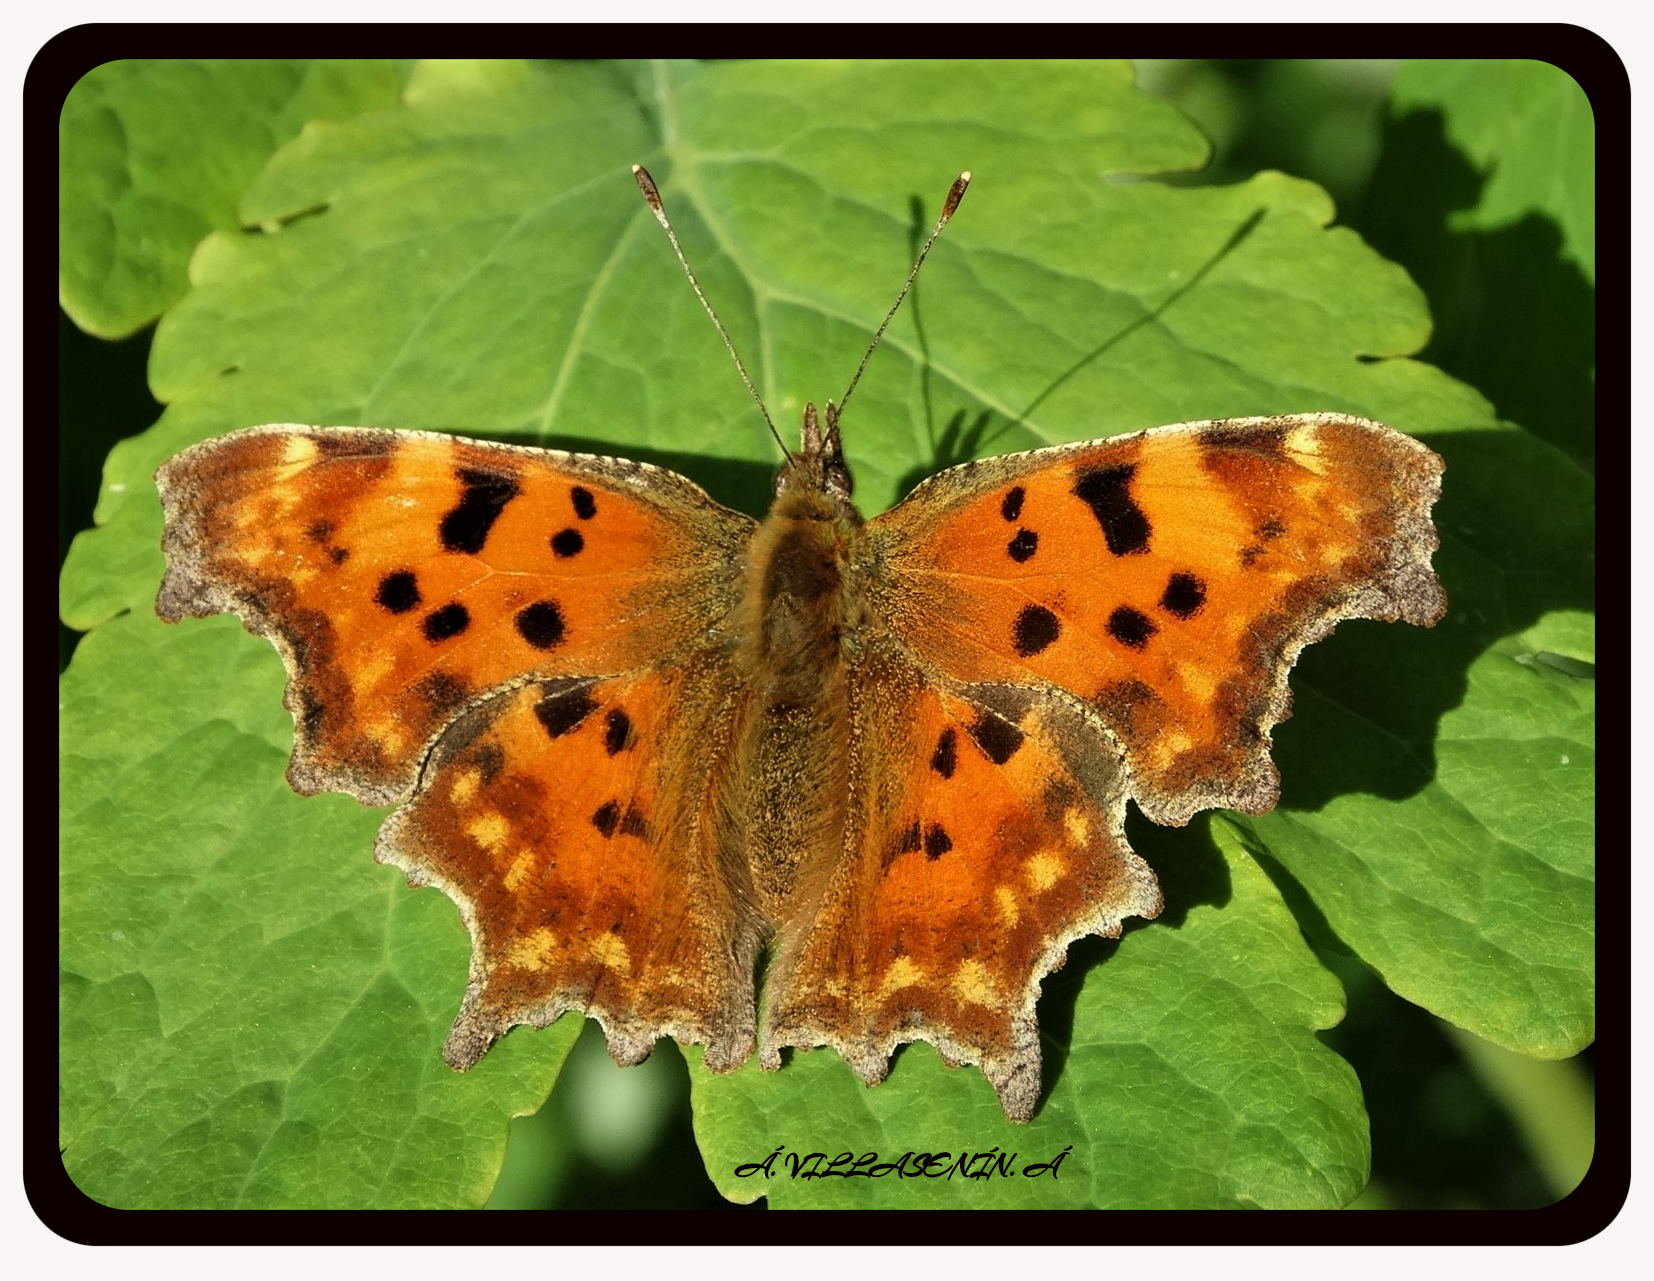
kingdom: Animalia
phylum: Arthropoda
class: Insecta
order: Lepidoptera
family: Nymphalidae
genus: Polygonia
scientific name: Polygonia c-album
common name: Comma
